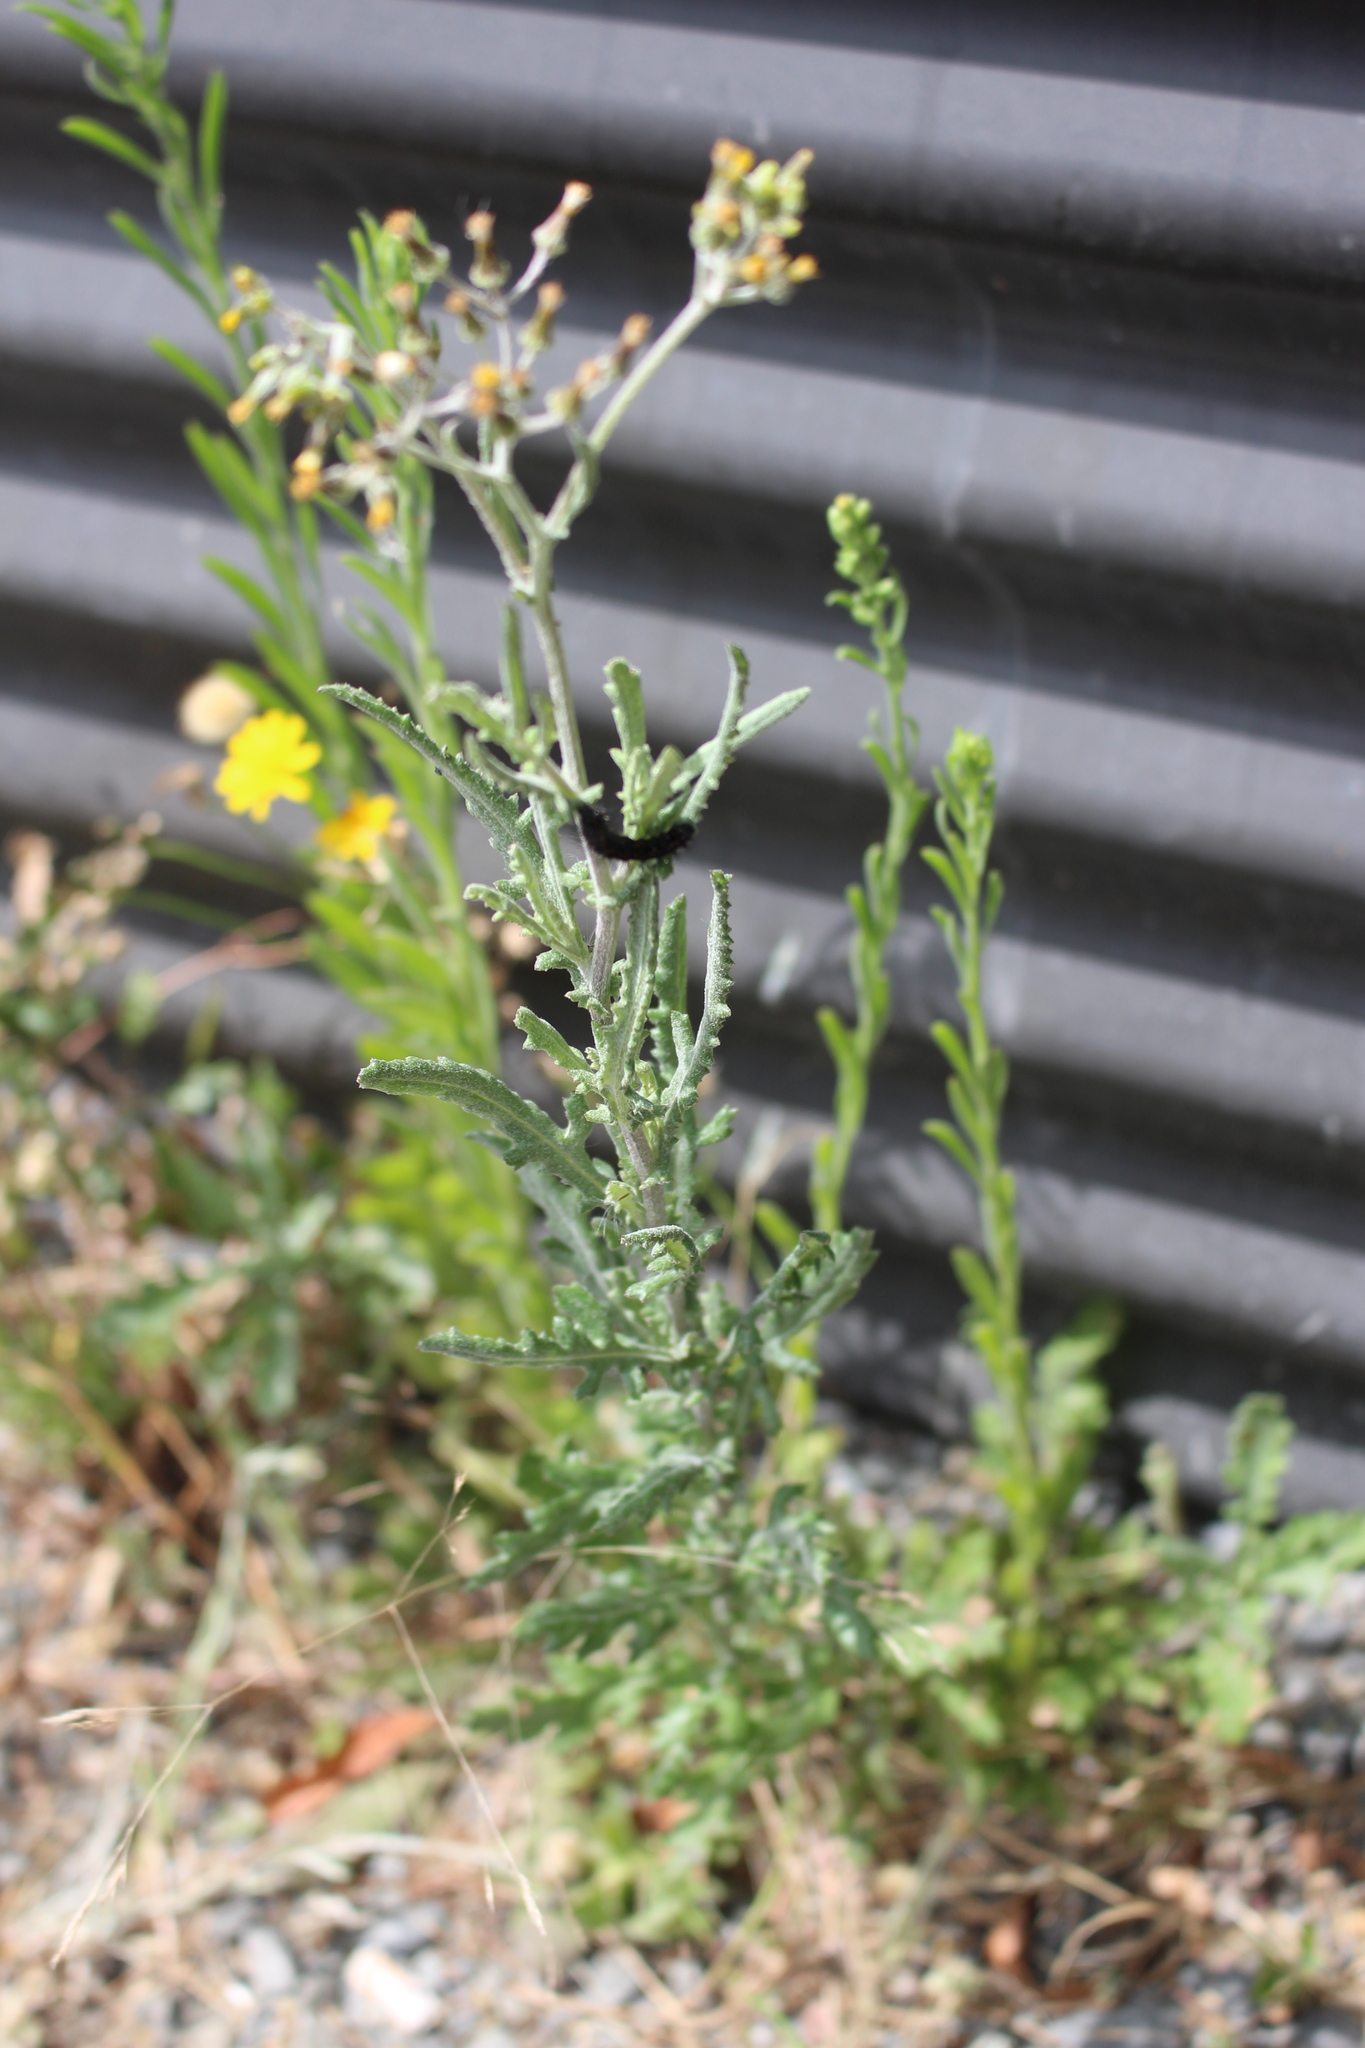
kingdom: Animalia
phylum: Arthropoda
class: Insecta
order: Lepidoptera
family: Erebidae
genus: Nyctemera
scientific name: Nyctemera annulatum
